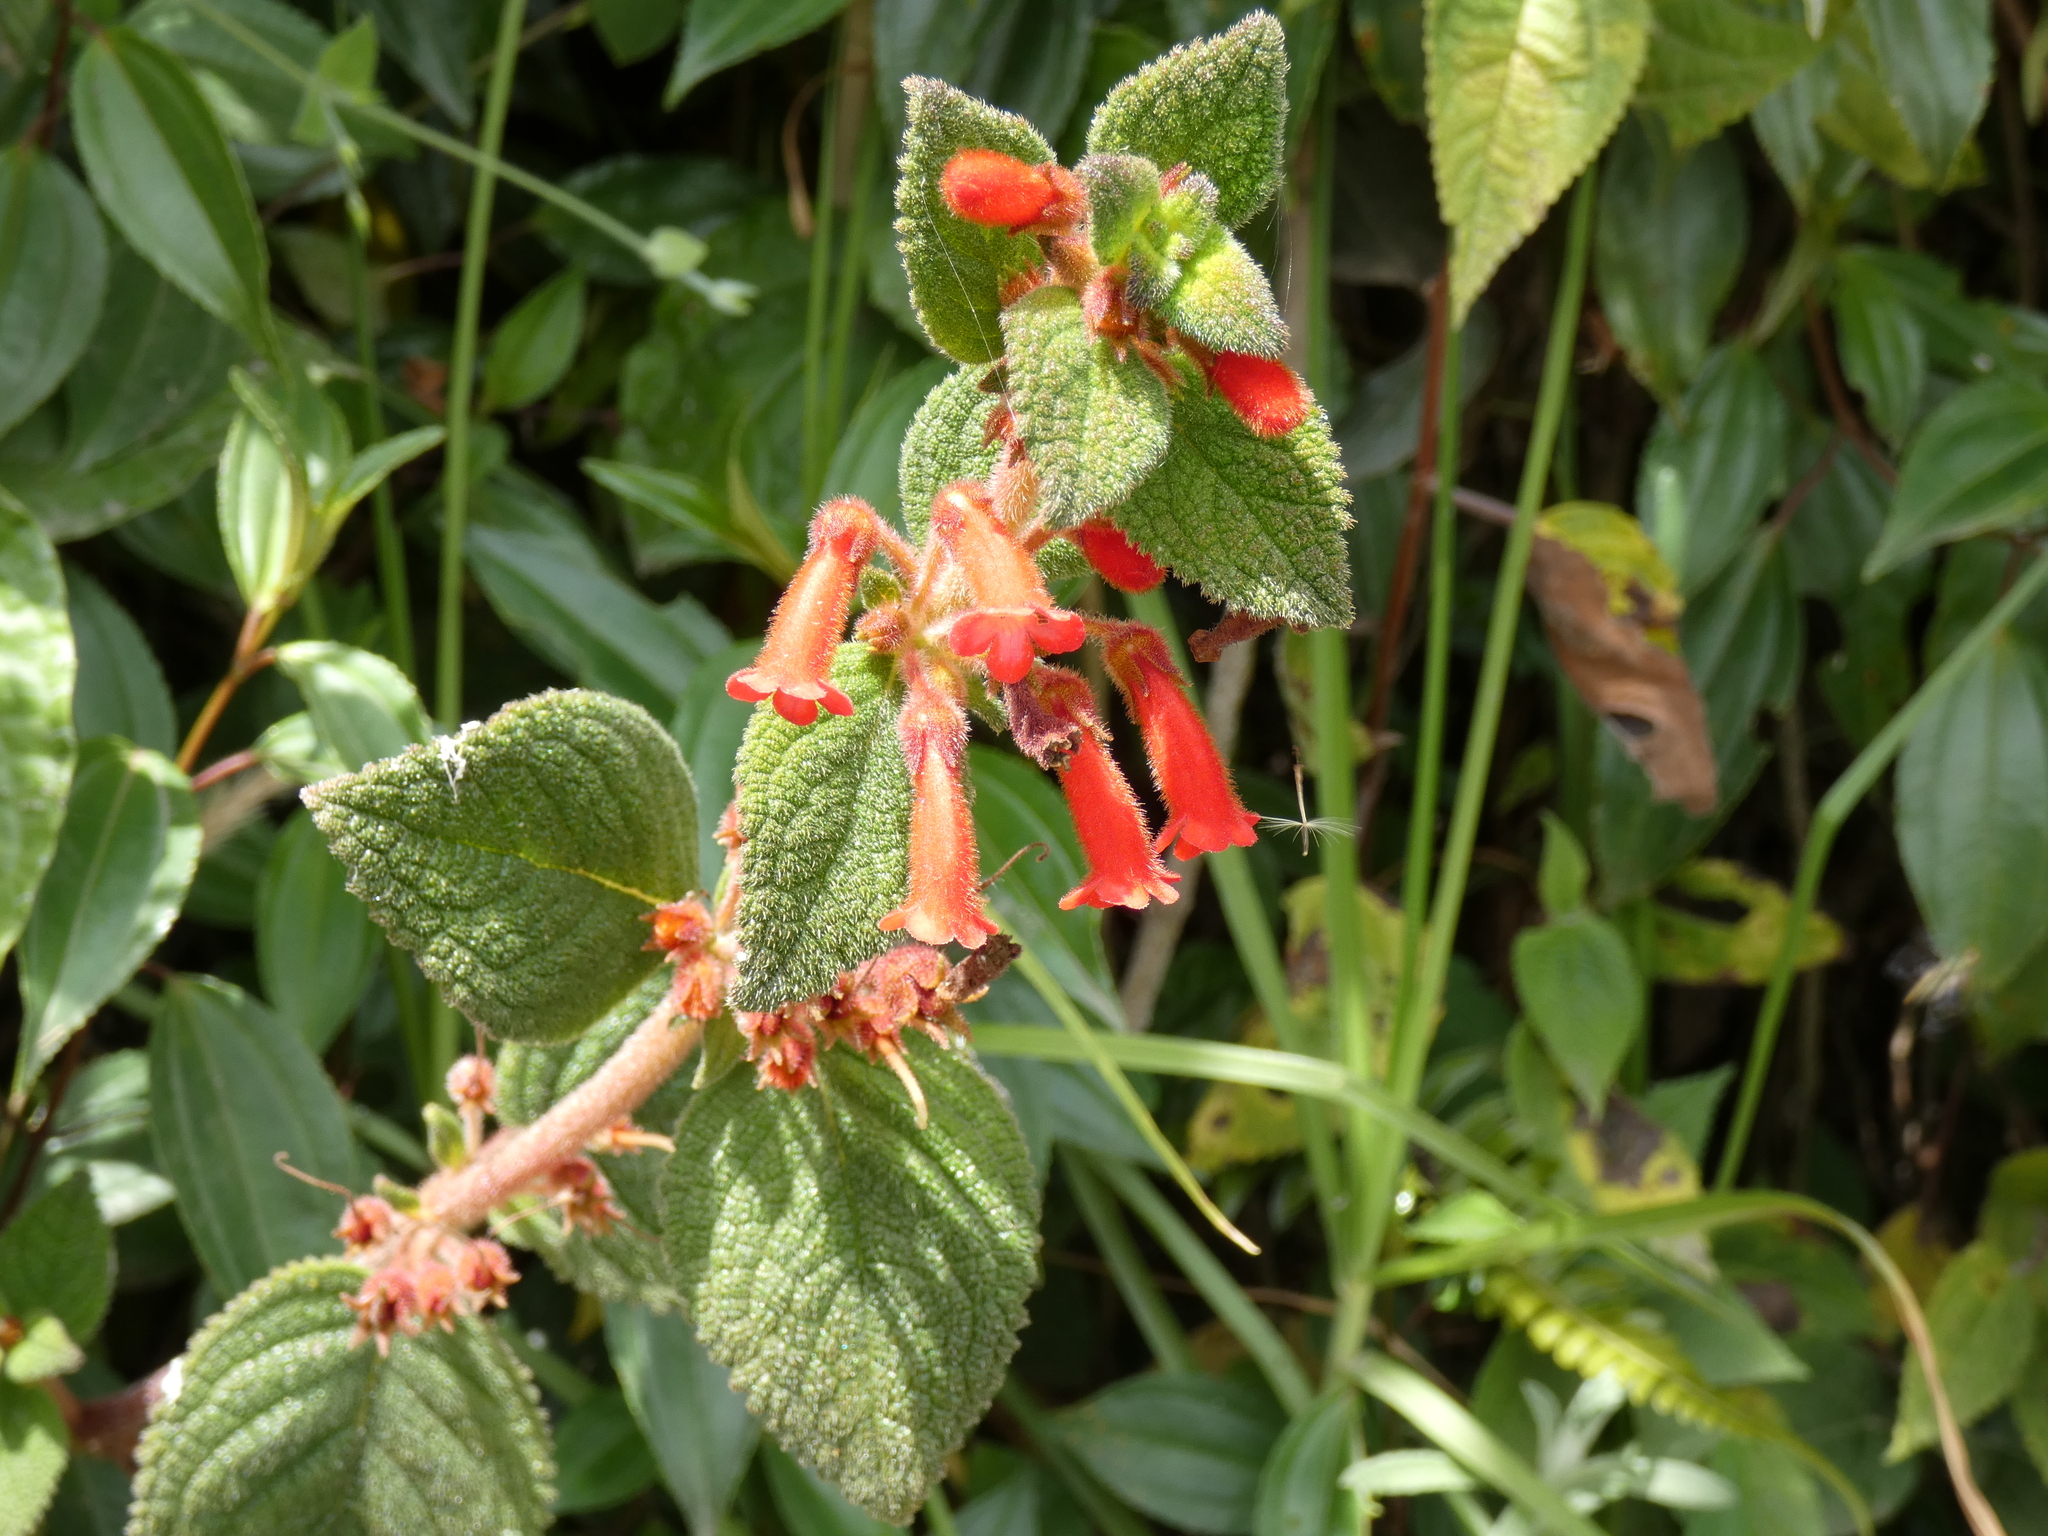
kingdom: Plantae
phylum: Tracheophyta
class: Magnoliopsida
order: Lamiales
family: Gesneriaceae
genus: Heppiella
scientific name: Heppiella ulmifolia
